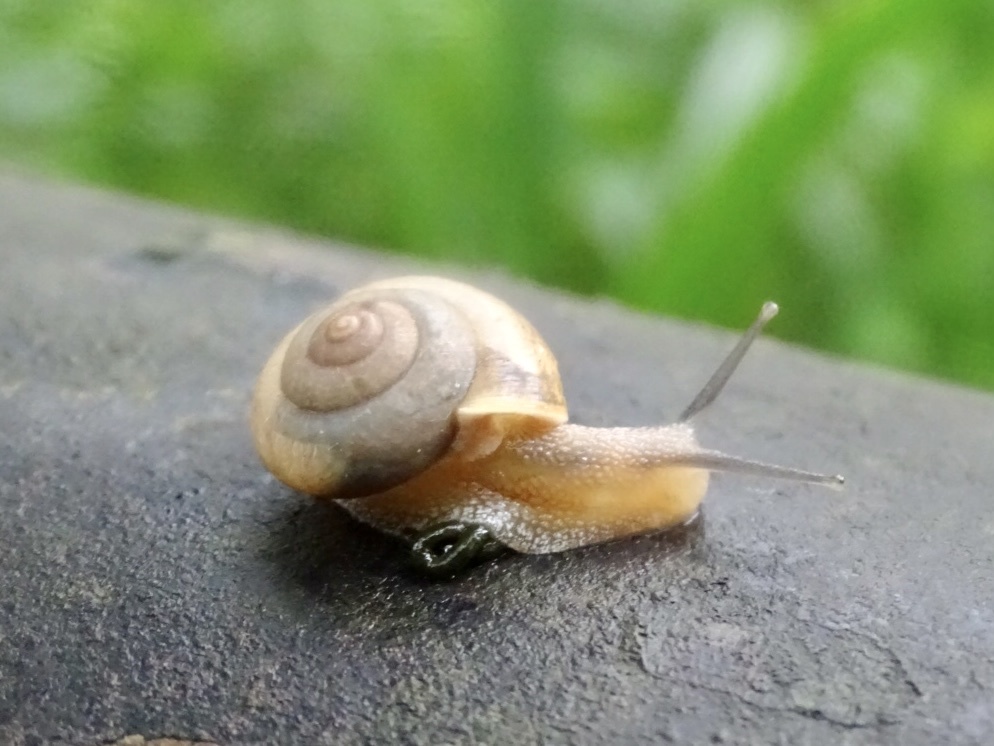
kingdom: Animalia
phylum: Mollusca
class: Gastropoda
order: Stylommatophora
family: Camaenidae
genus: Bradybaena
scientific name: Bradybaena similaris
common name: Asian trampsnail
